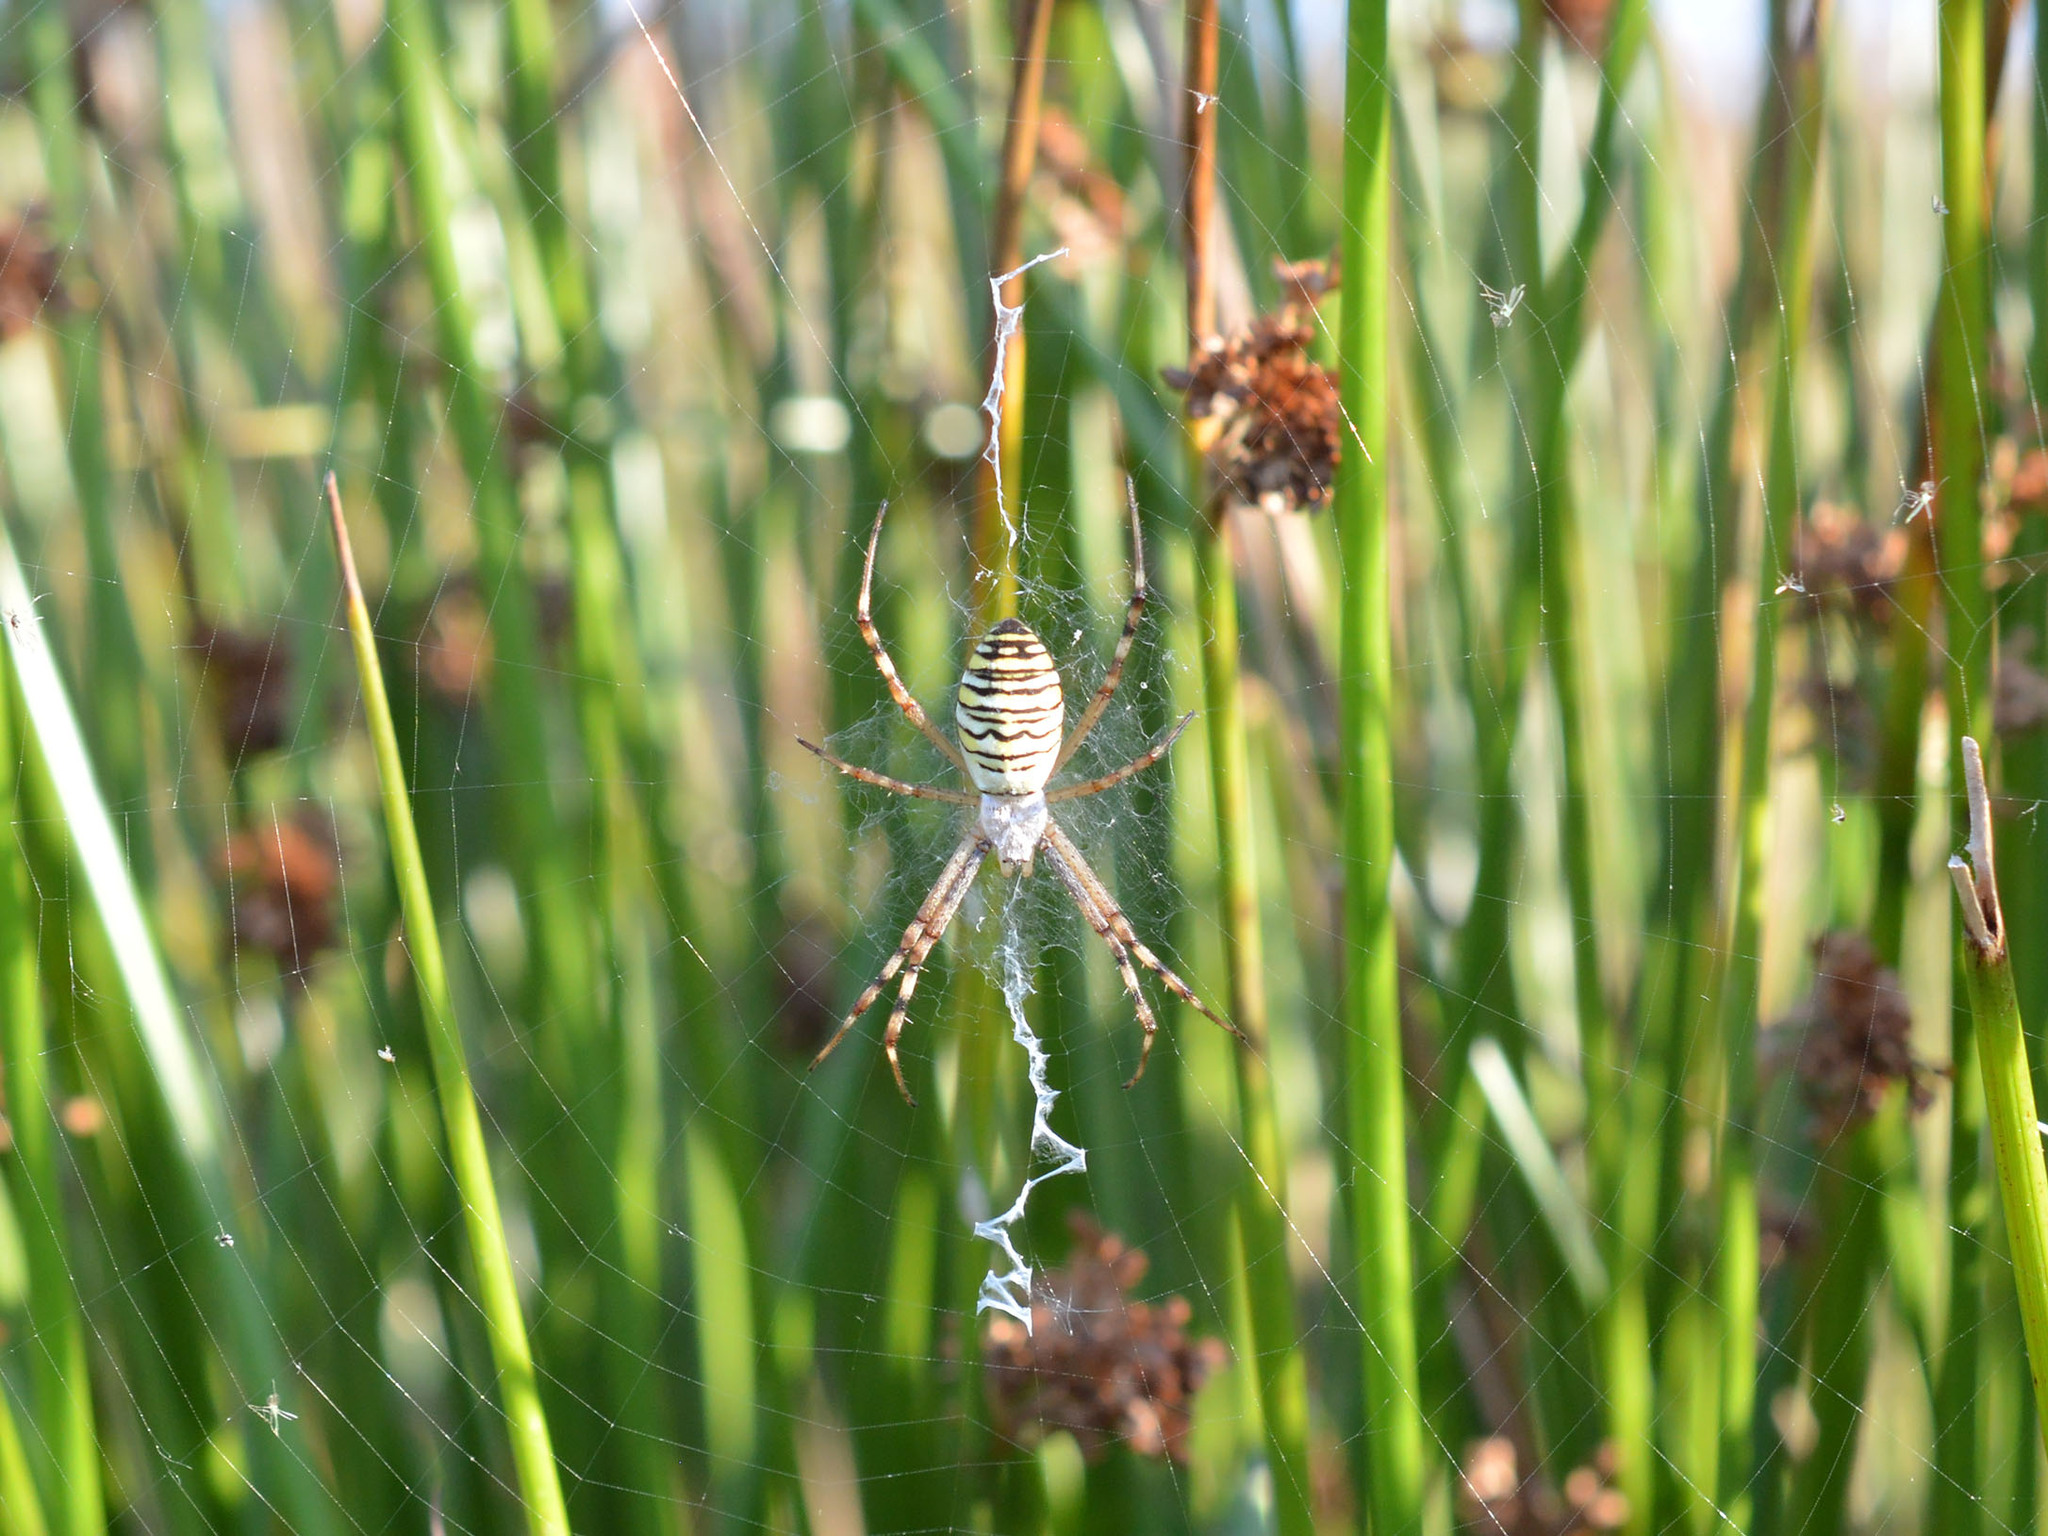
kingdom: Animalia
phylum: Arthropoda
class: Arachnida
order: Araneae
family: Araneidae
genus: Argiope
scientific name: Argiope bruennichi
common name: Wasp spider
